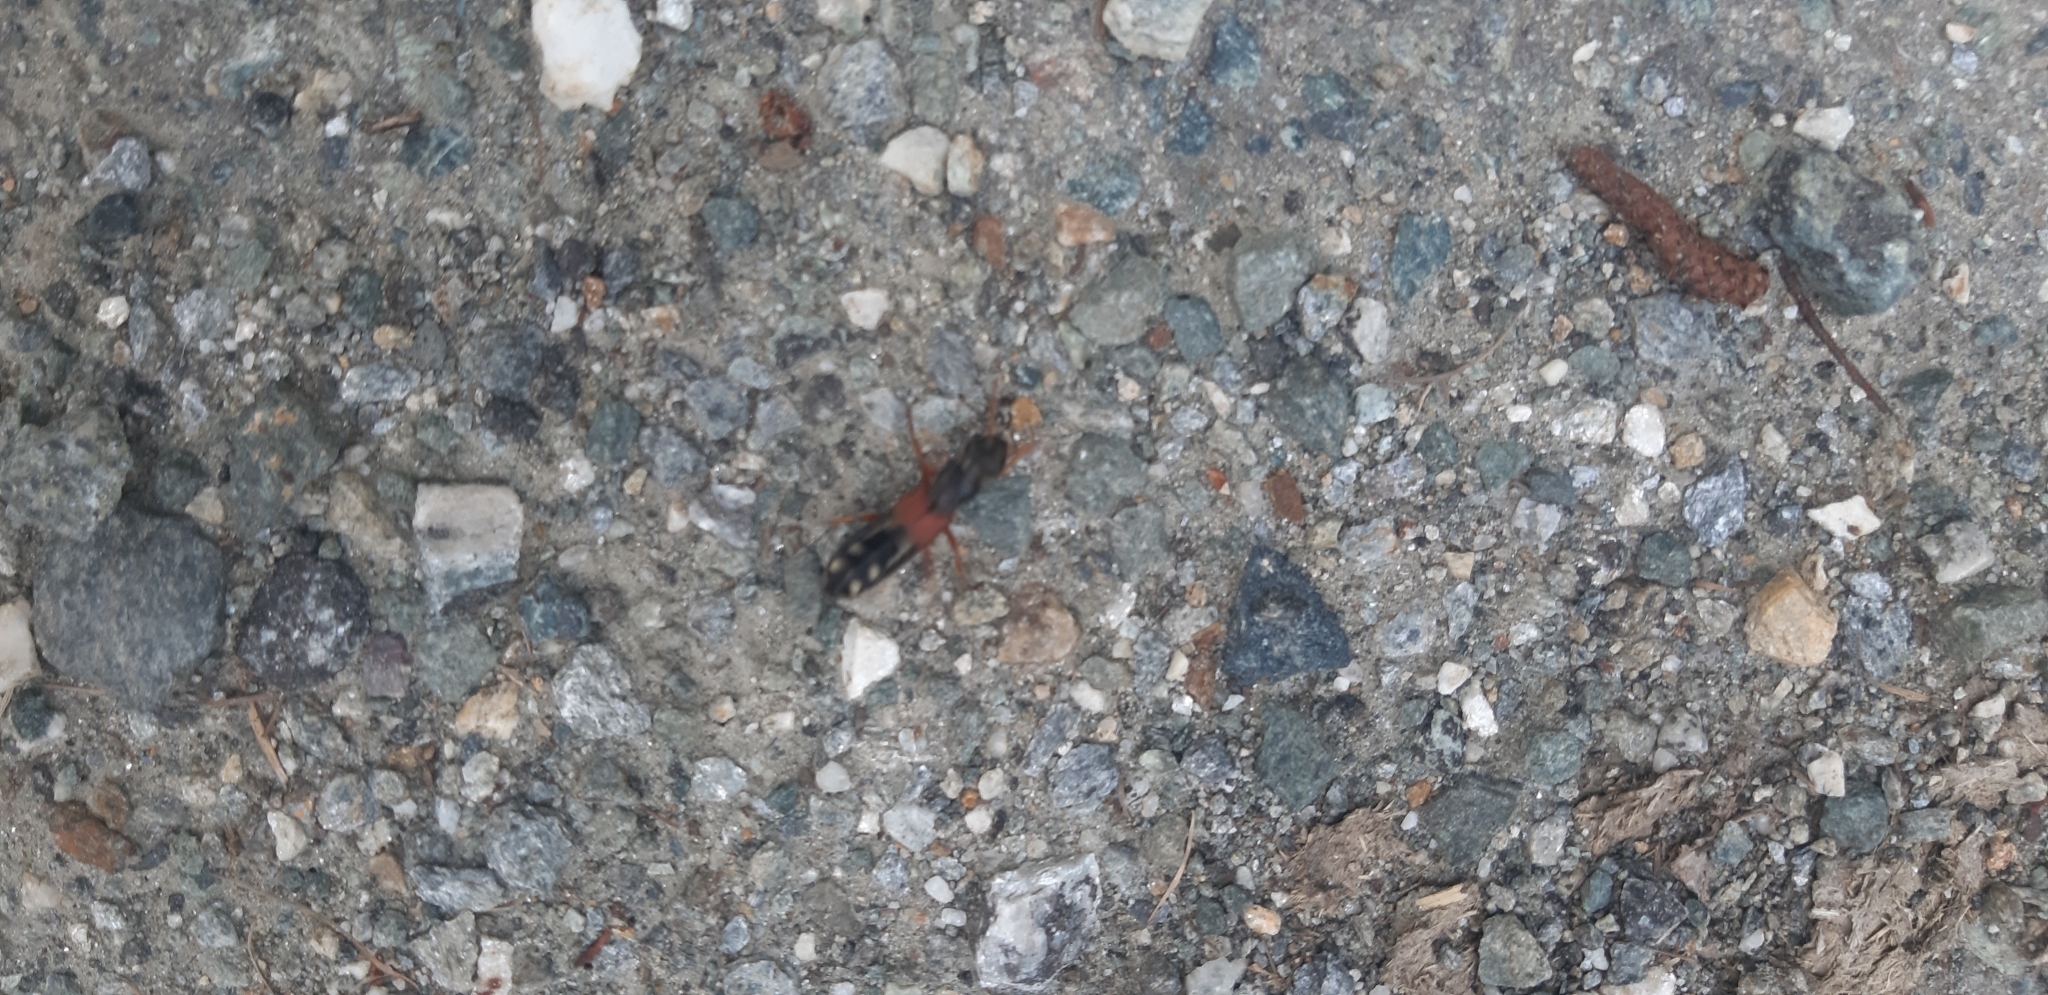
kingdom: Animalia
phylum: Arthropoda
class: Insecta
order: Coleoptera
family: Staphylinidae
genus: Staphylinus
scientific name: Staphylinus erythropterus
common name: Staph beetle
